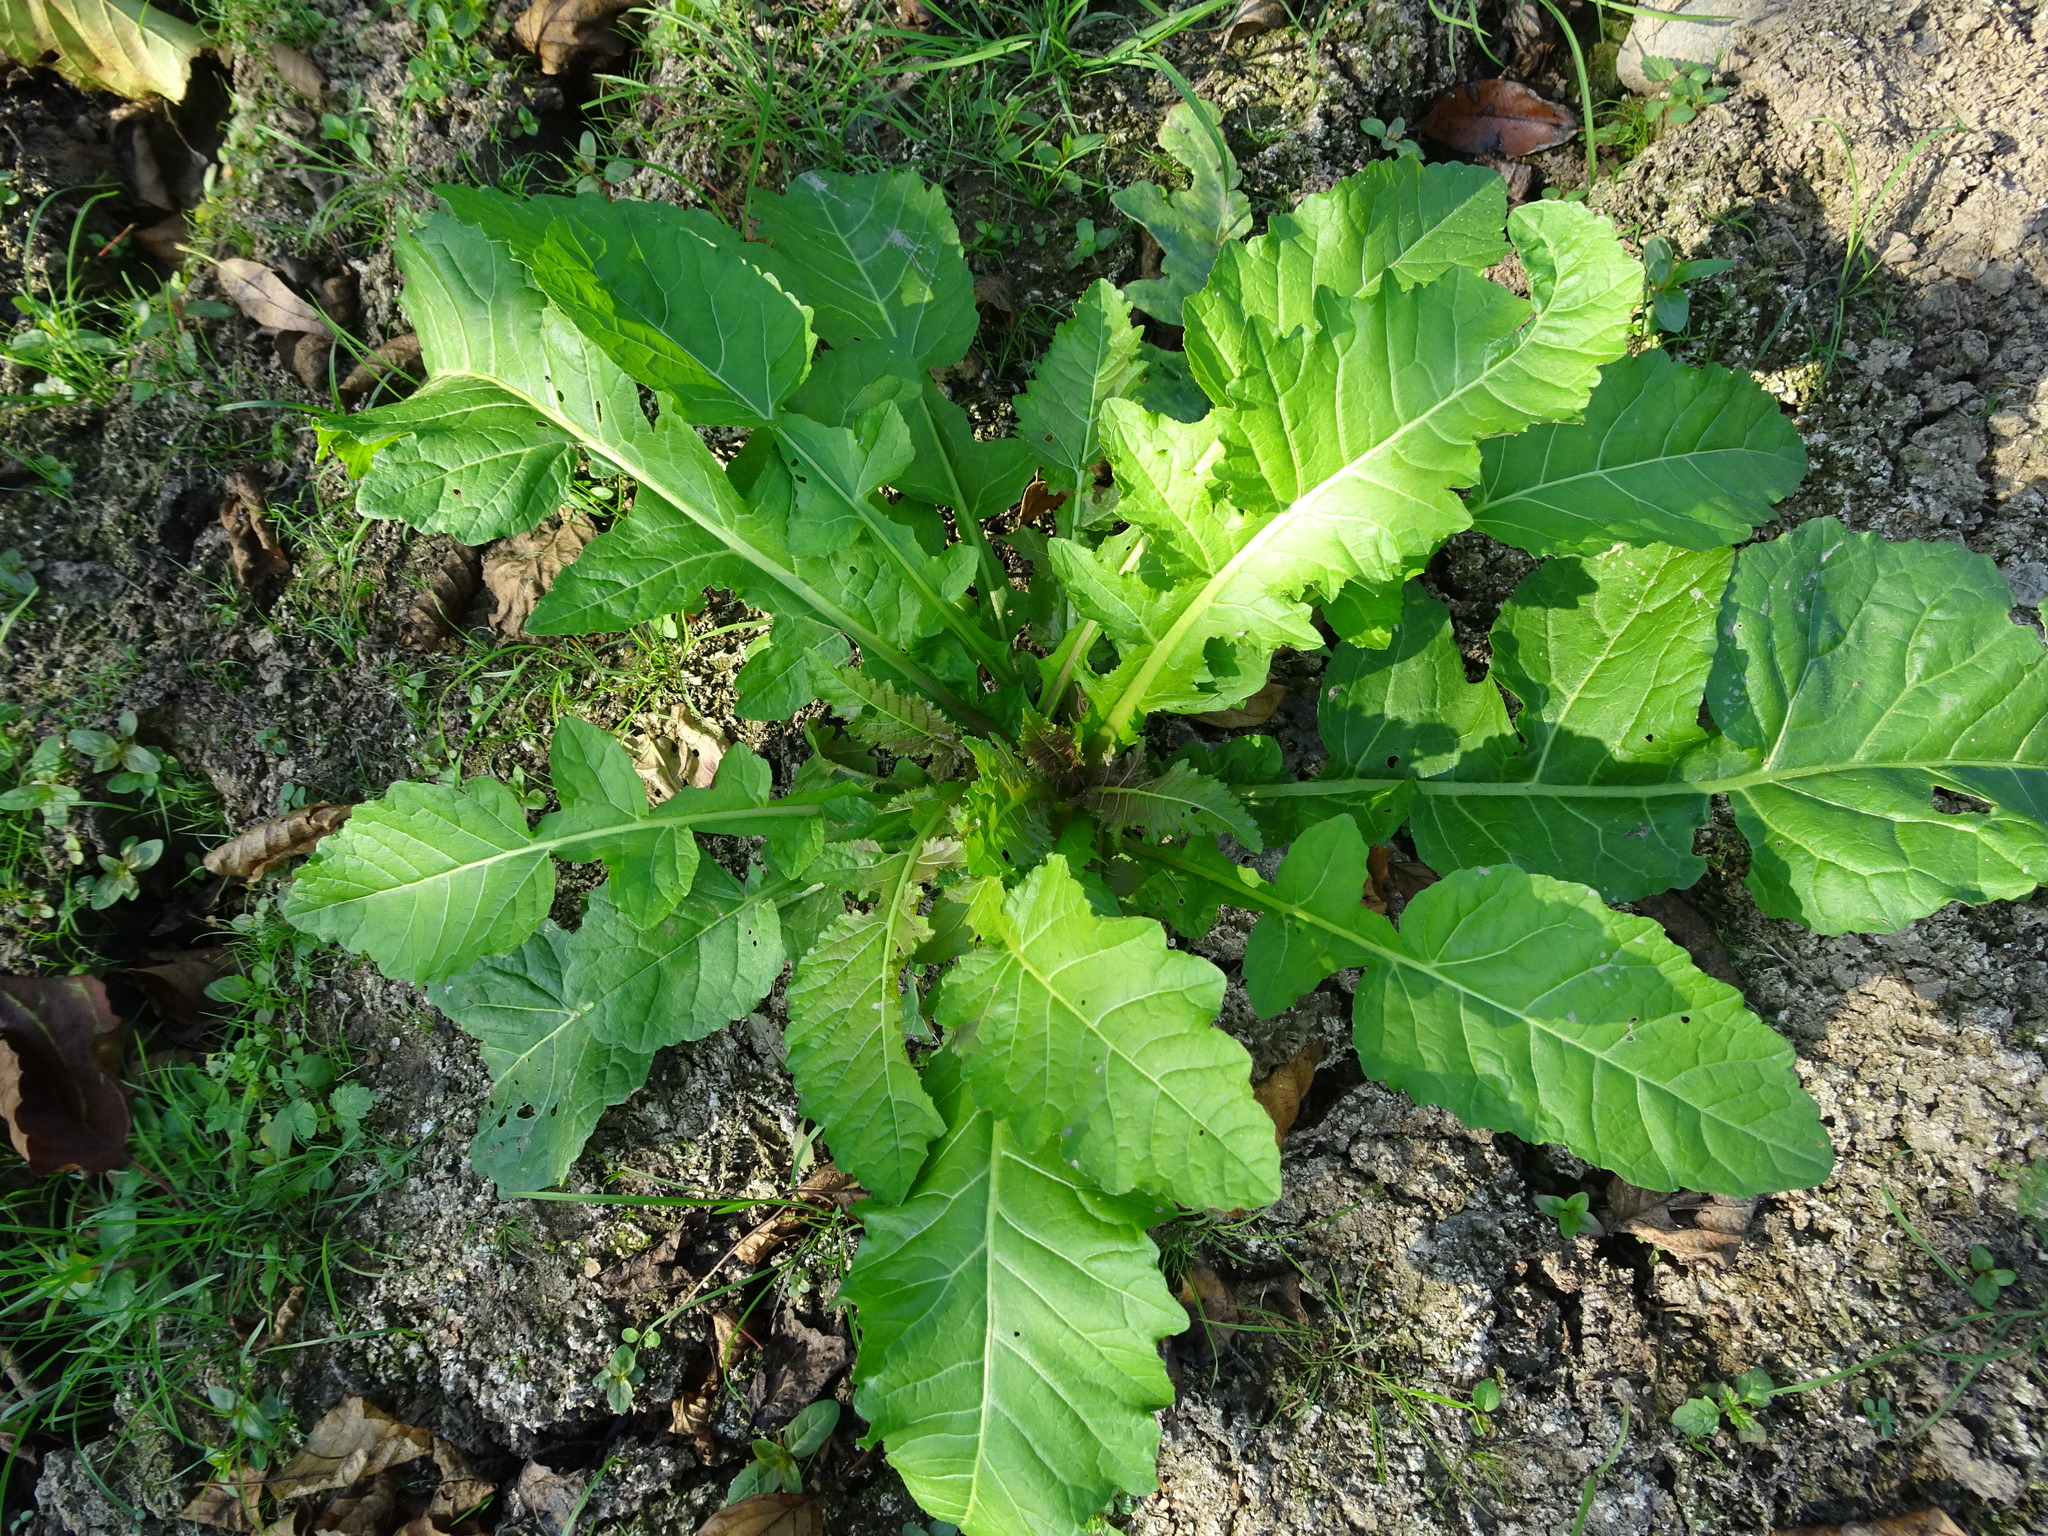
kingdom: Plantae
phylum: Tracheophyta
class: Magnoliopsida
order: Brassicales
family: Brassicaceae
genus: Rorippa
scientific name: Rorippa amphibia
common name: Great yellow-cress
